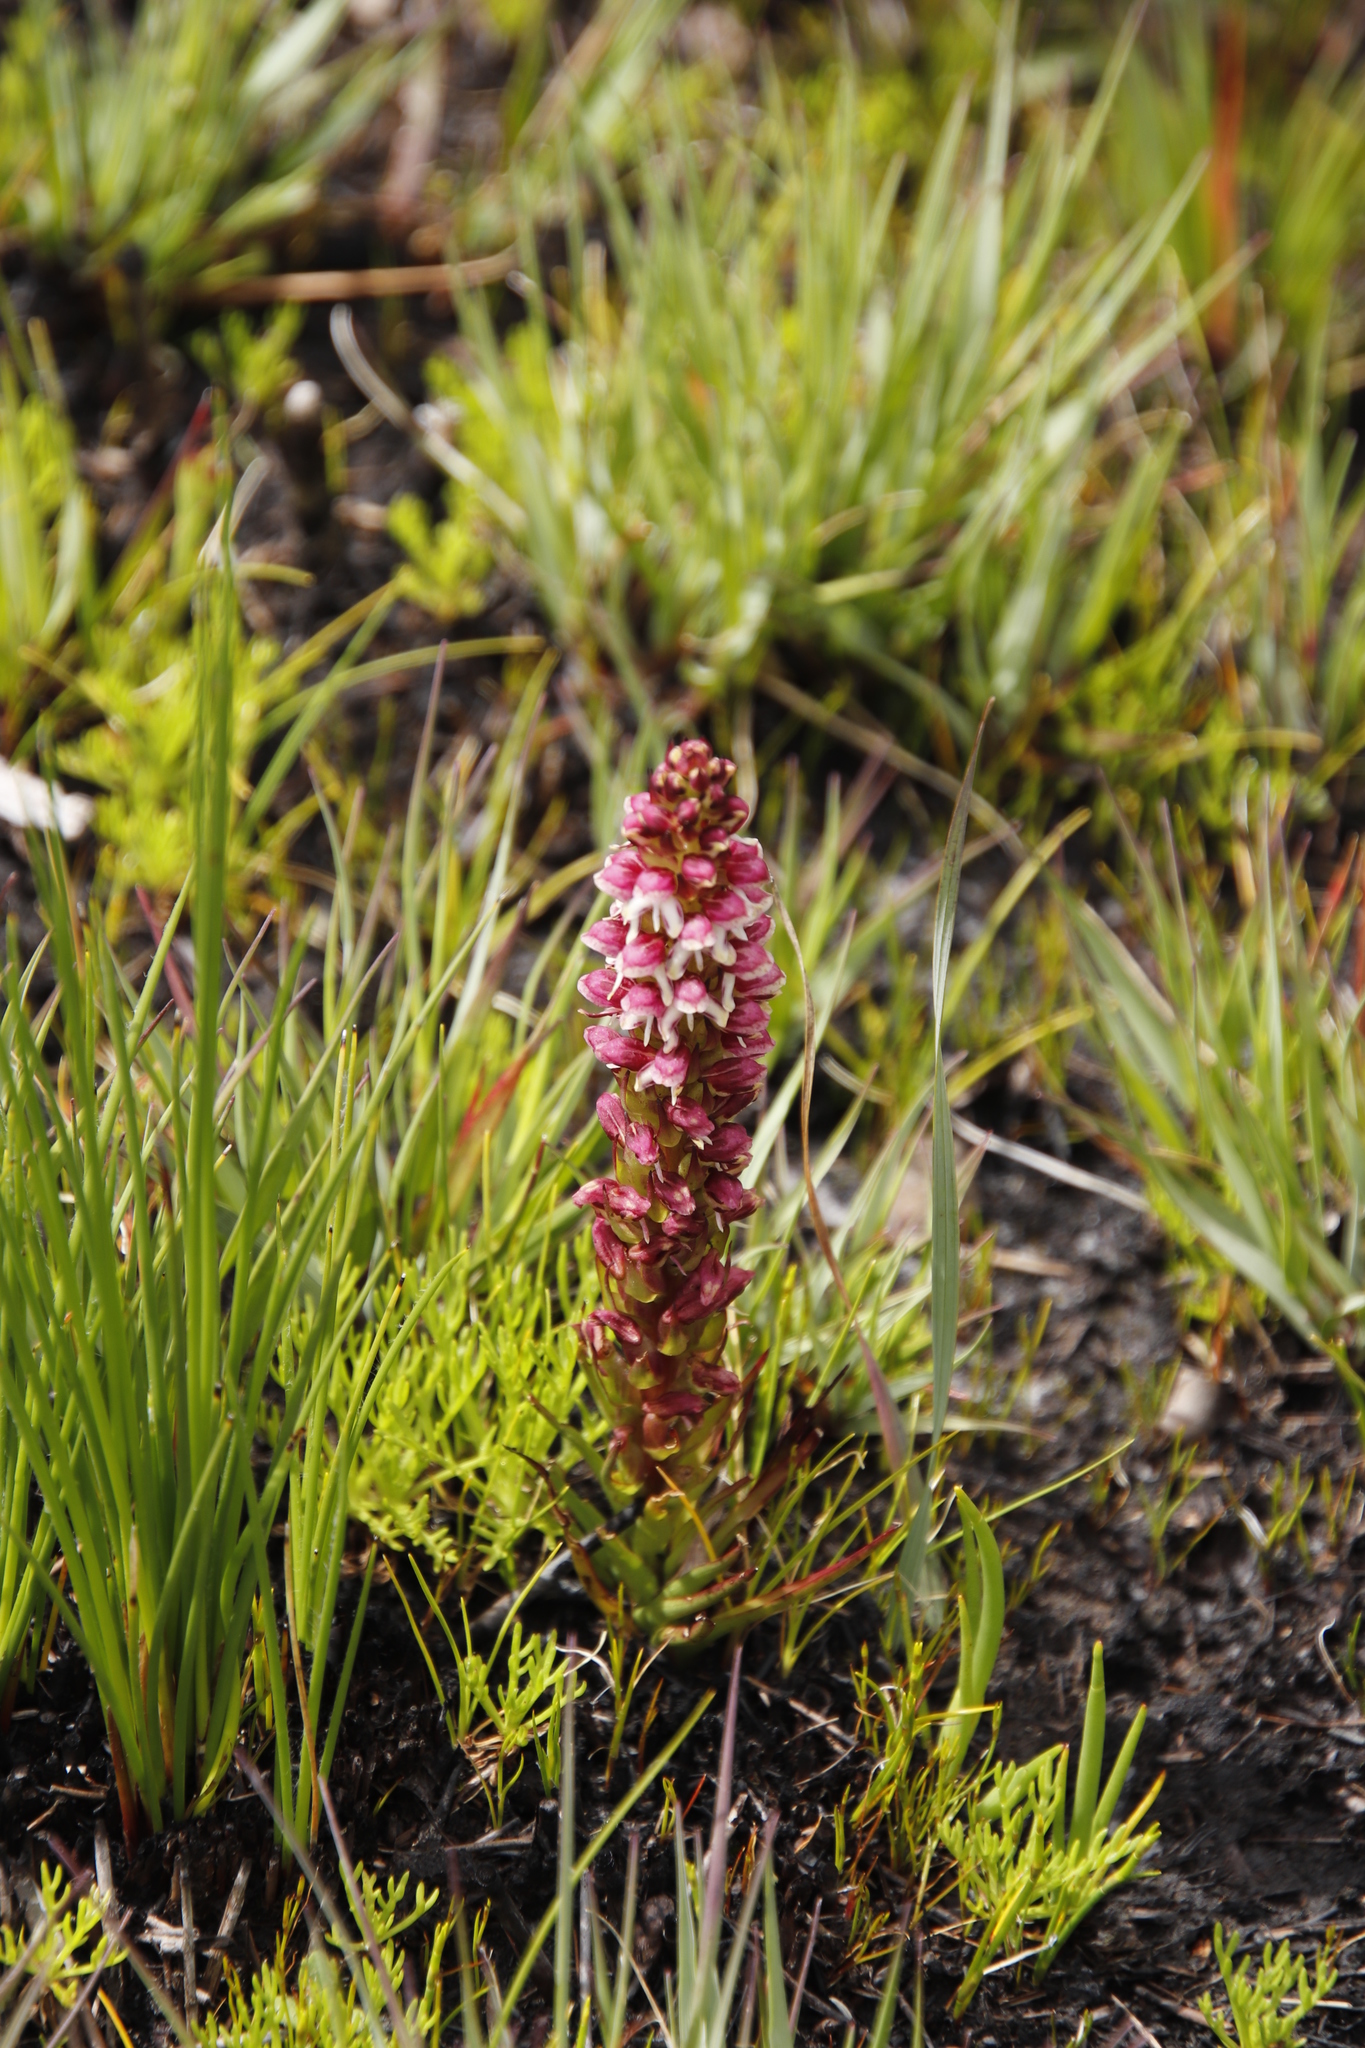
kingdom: Plantae
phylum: Tracheophyta
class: Liliopsida
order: Asparagales
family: Orchidaceae
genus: Disa
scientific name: Disa
